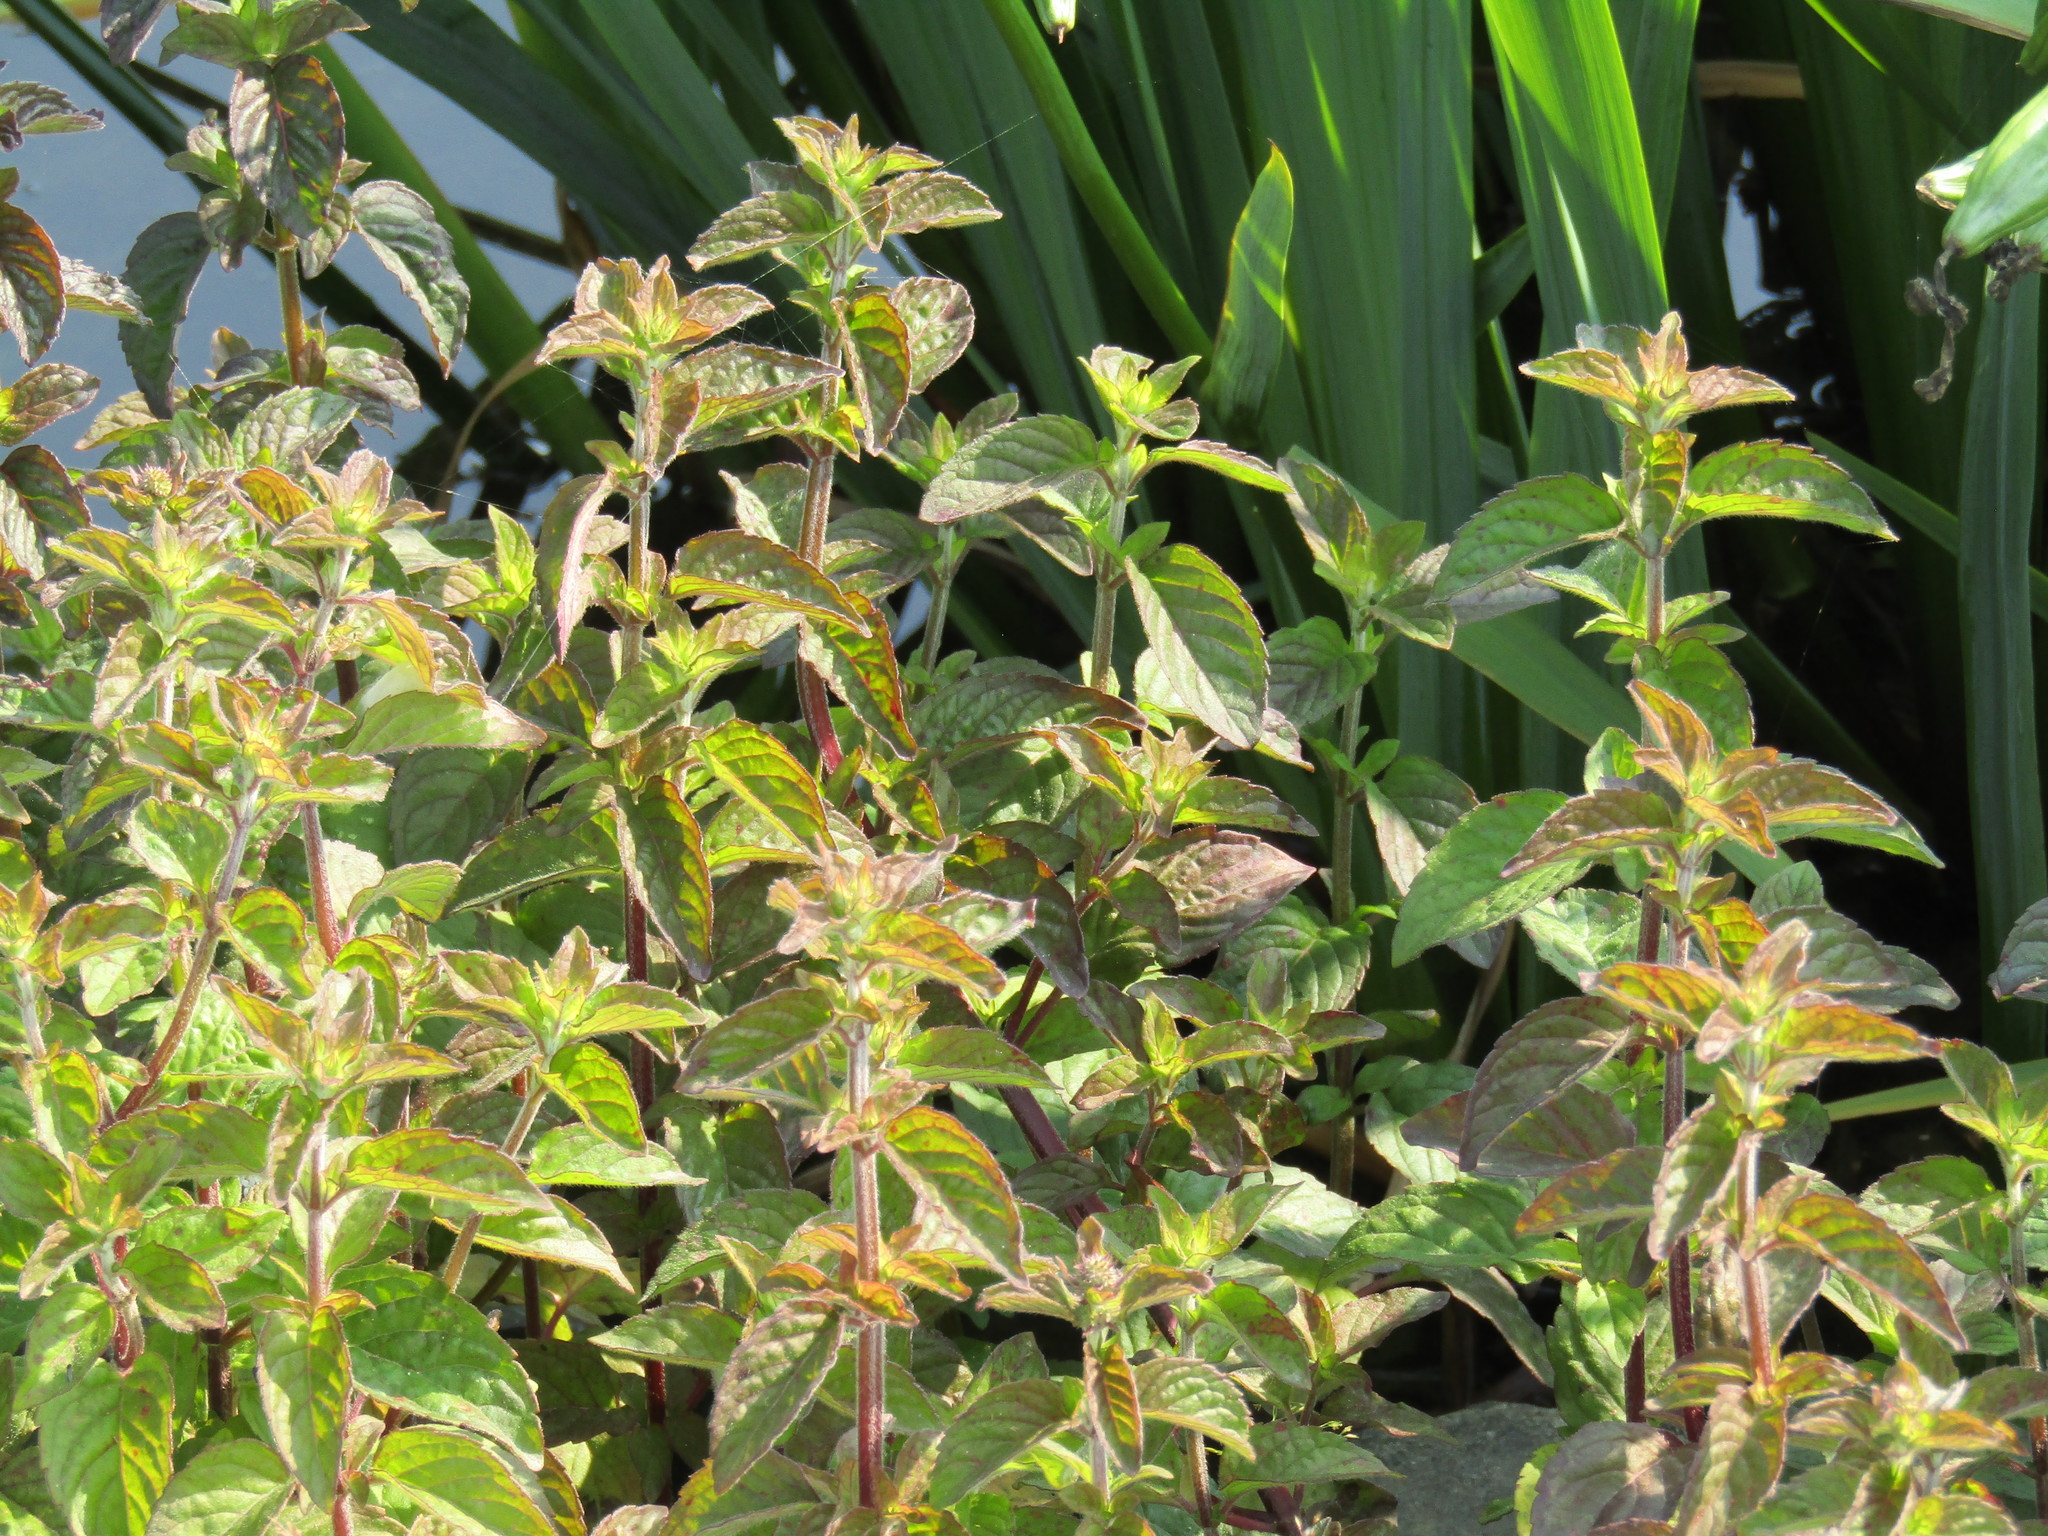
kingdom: Plantae
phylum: Tracheophyta
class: Magnoliopsida
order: Lamiales
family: Lamiaceae
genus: Mentha
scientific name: Mentha aquatica
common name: Water mint
